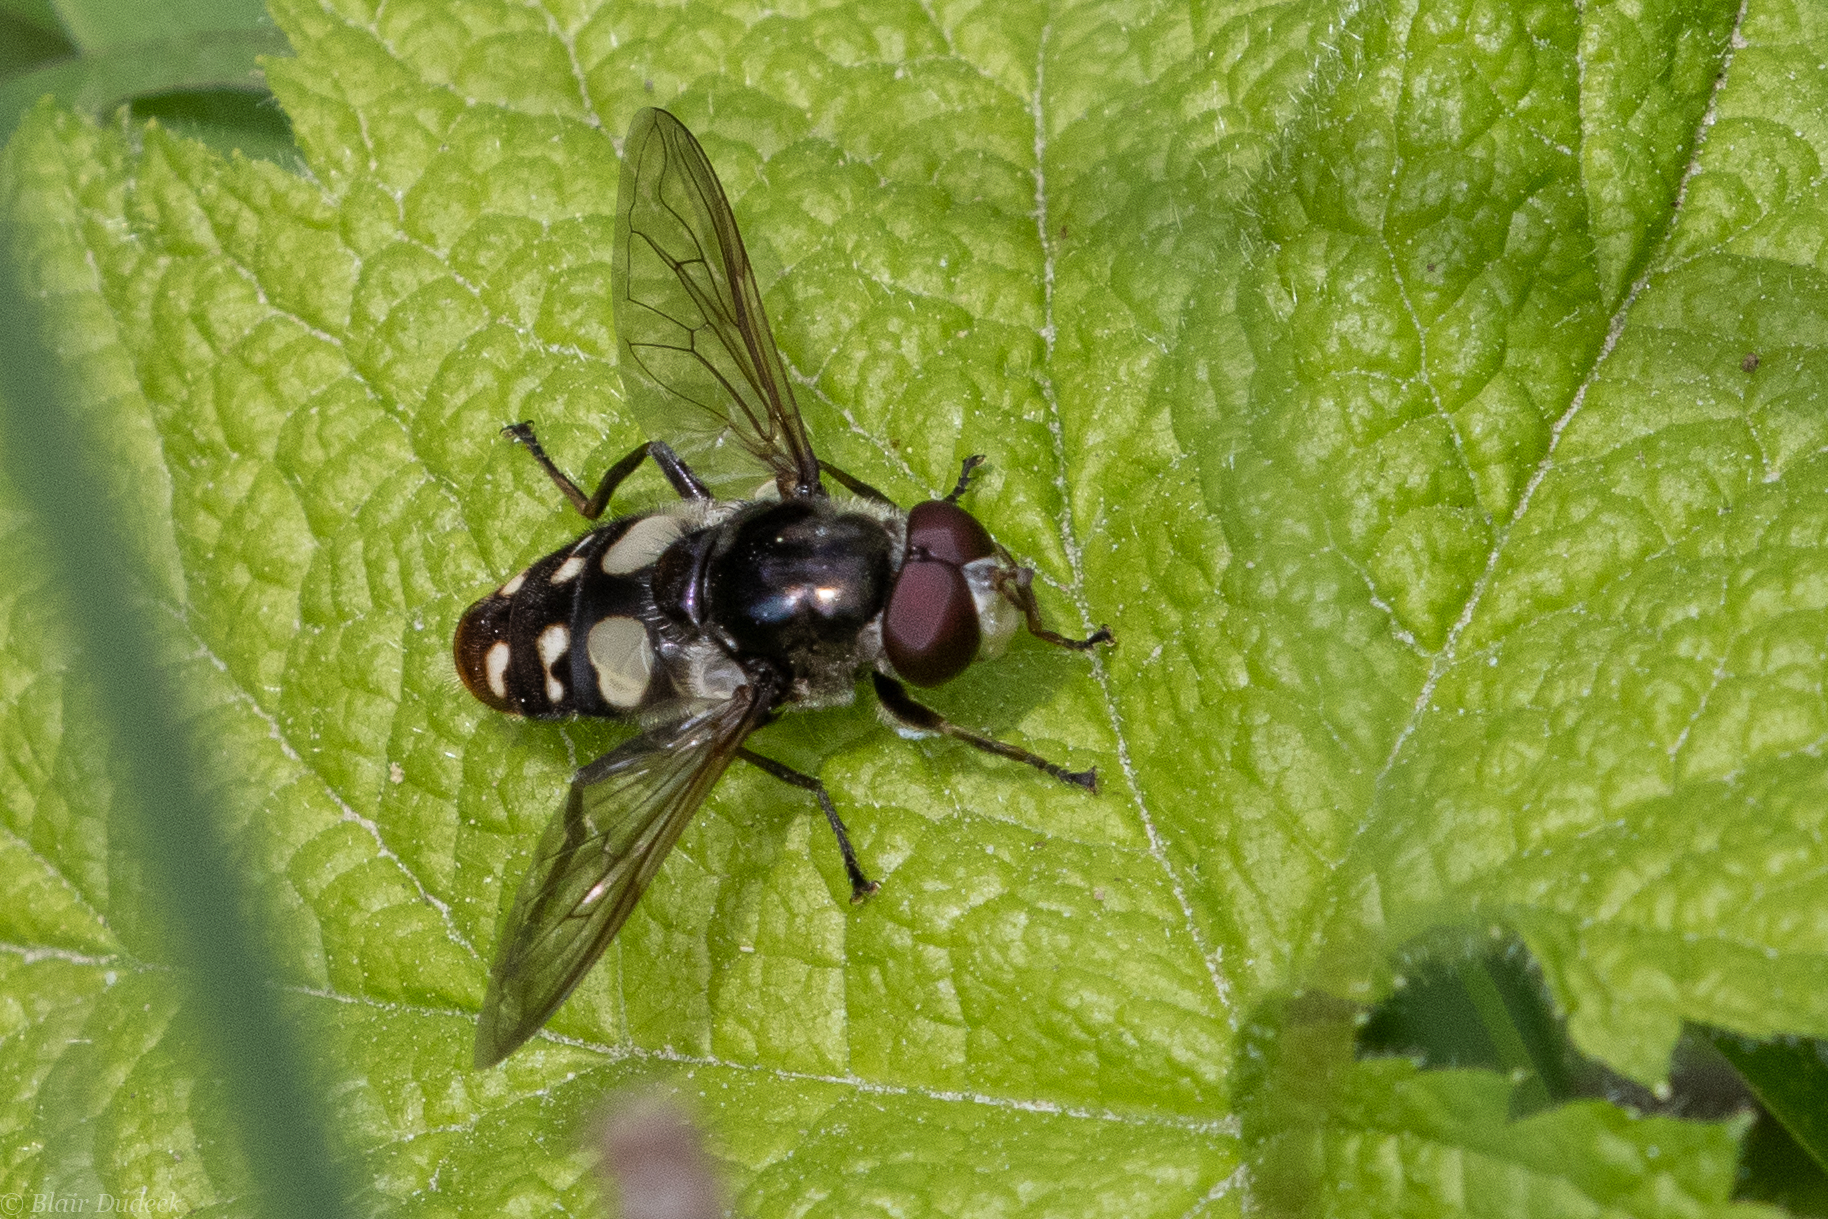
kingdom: Animalia
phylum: Arthropoda
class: Insecta
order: Diptera
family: Syrphidae
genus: Sericomyia
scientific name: Sericomyia lata
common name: White-spotted pond fly
